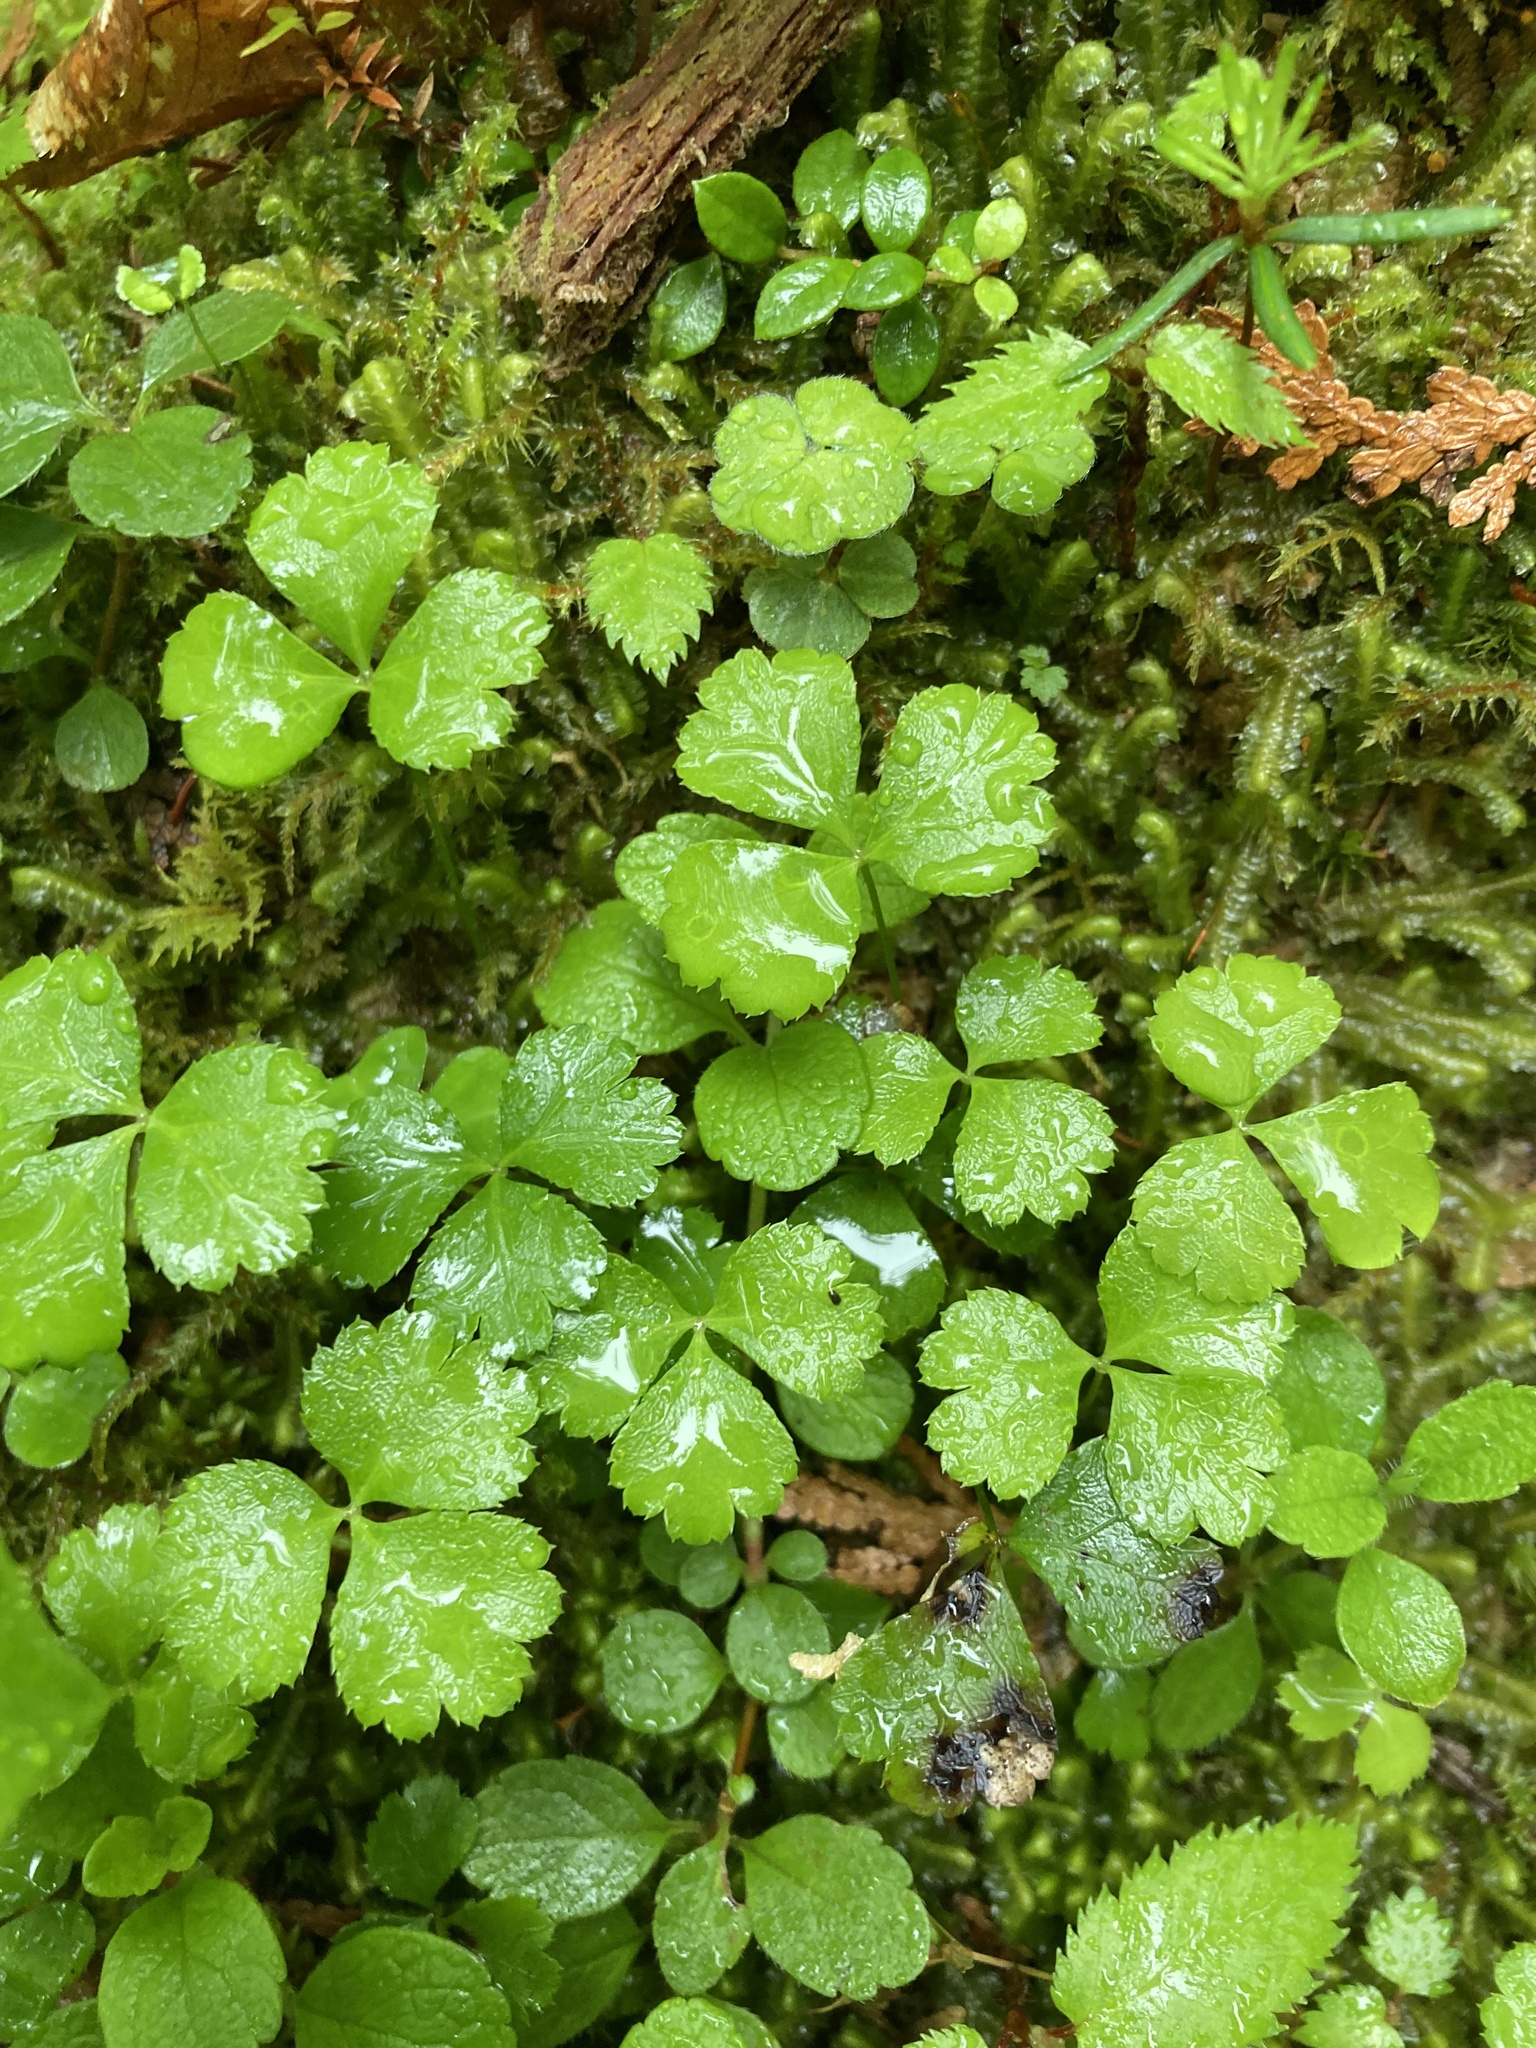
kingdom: Plantae
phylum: Tracheophyta
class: Magnoliopsida
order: Ranunculales
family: Ranunculaceae
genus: Coptis
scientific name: Coptis trifolia
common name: Canker-root
